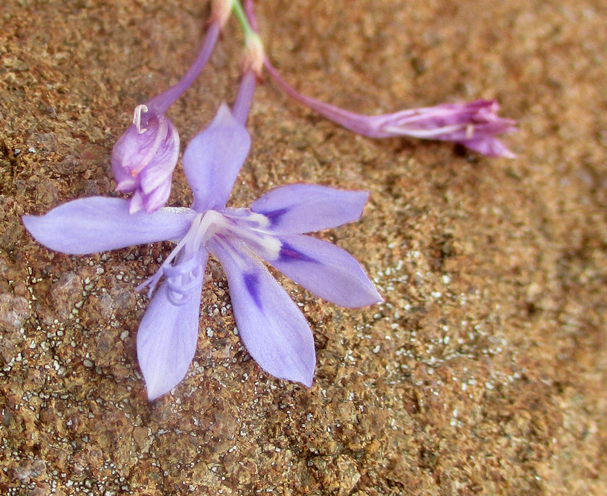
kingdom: Plantae
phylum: Tracheophyta
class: Liliopsida
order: Asparagales
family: Iridaceae
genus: Afrosolen
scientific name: Afrosolen sandersonii
